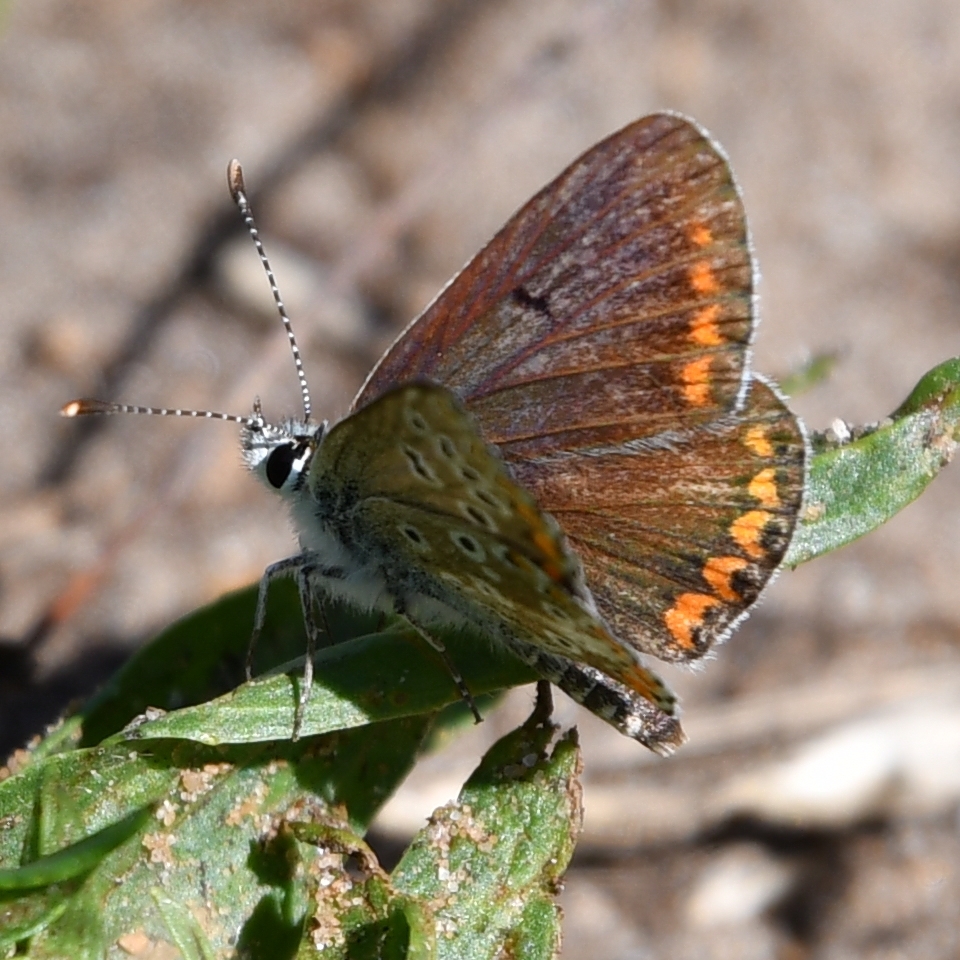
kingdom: Animalia
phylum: Arthropoda
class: Insecta
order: Lepidoptera
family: Lycaenidae
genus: Aricia
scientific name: Aricia agestis
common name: Brown argus
